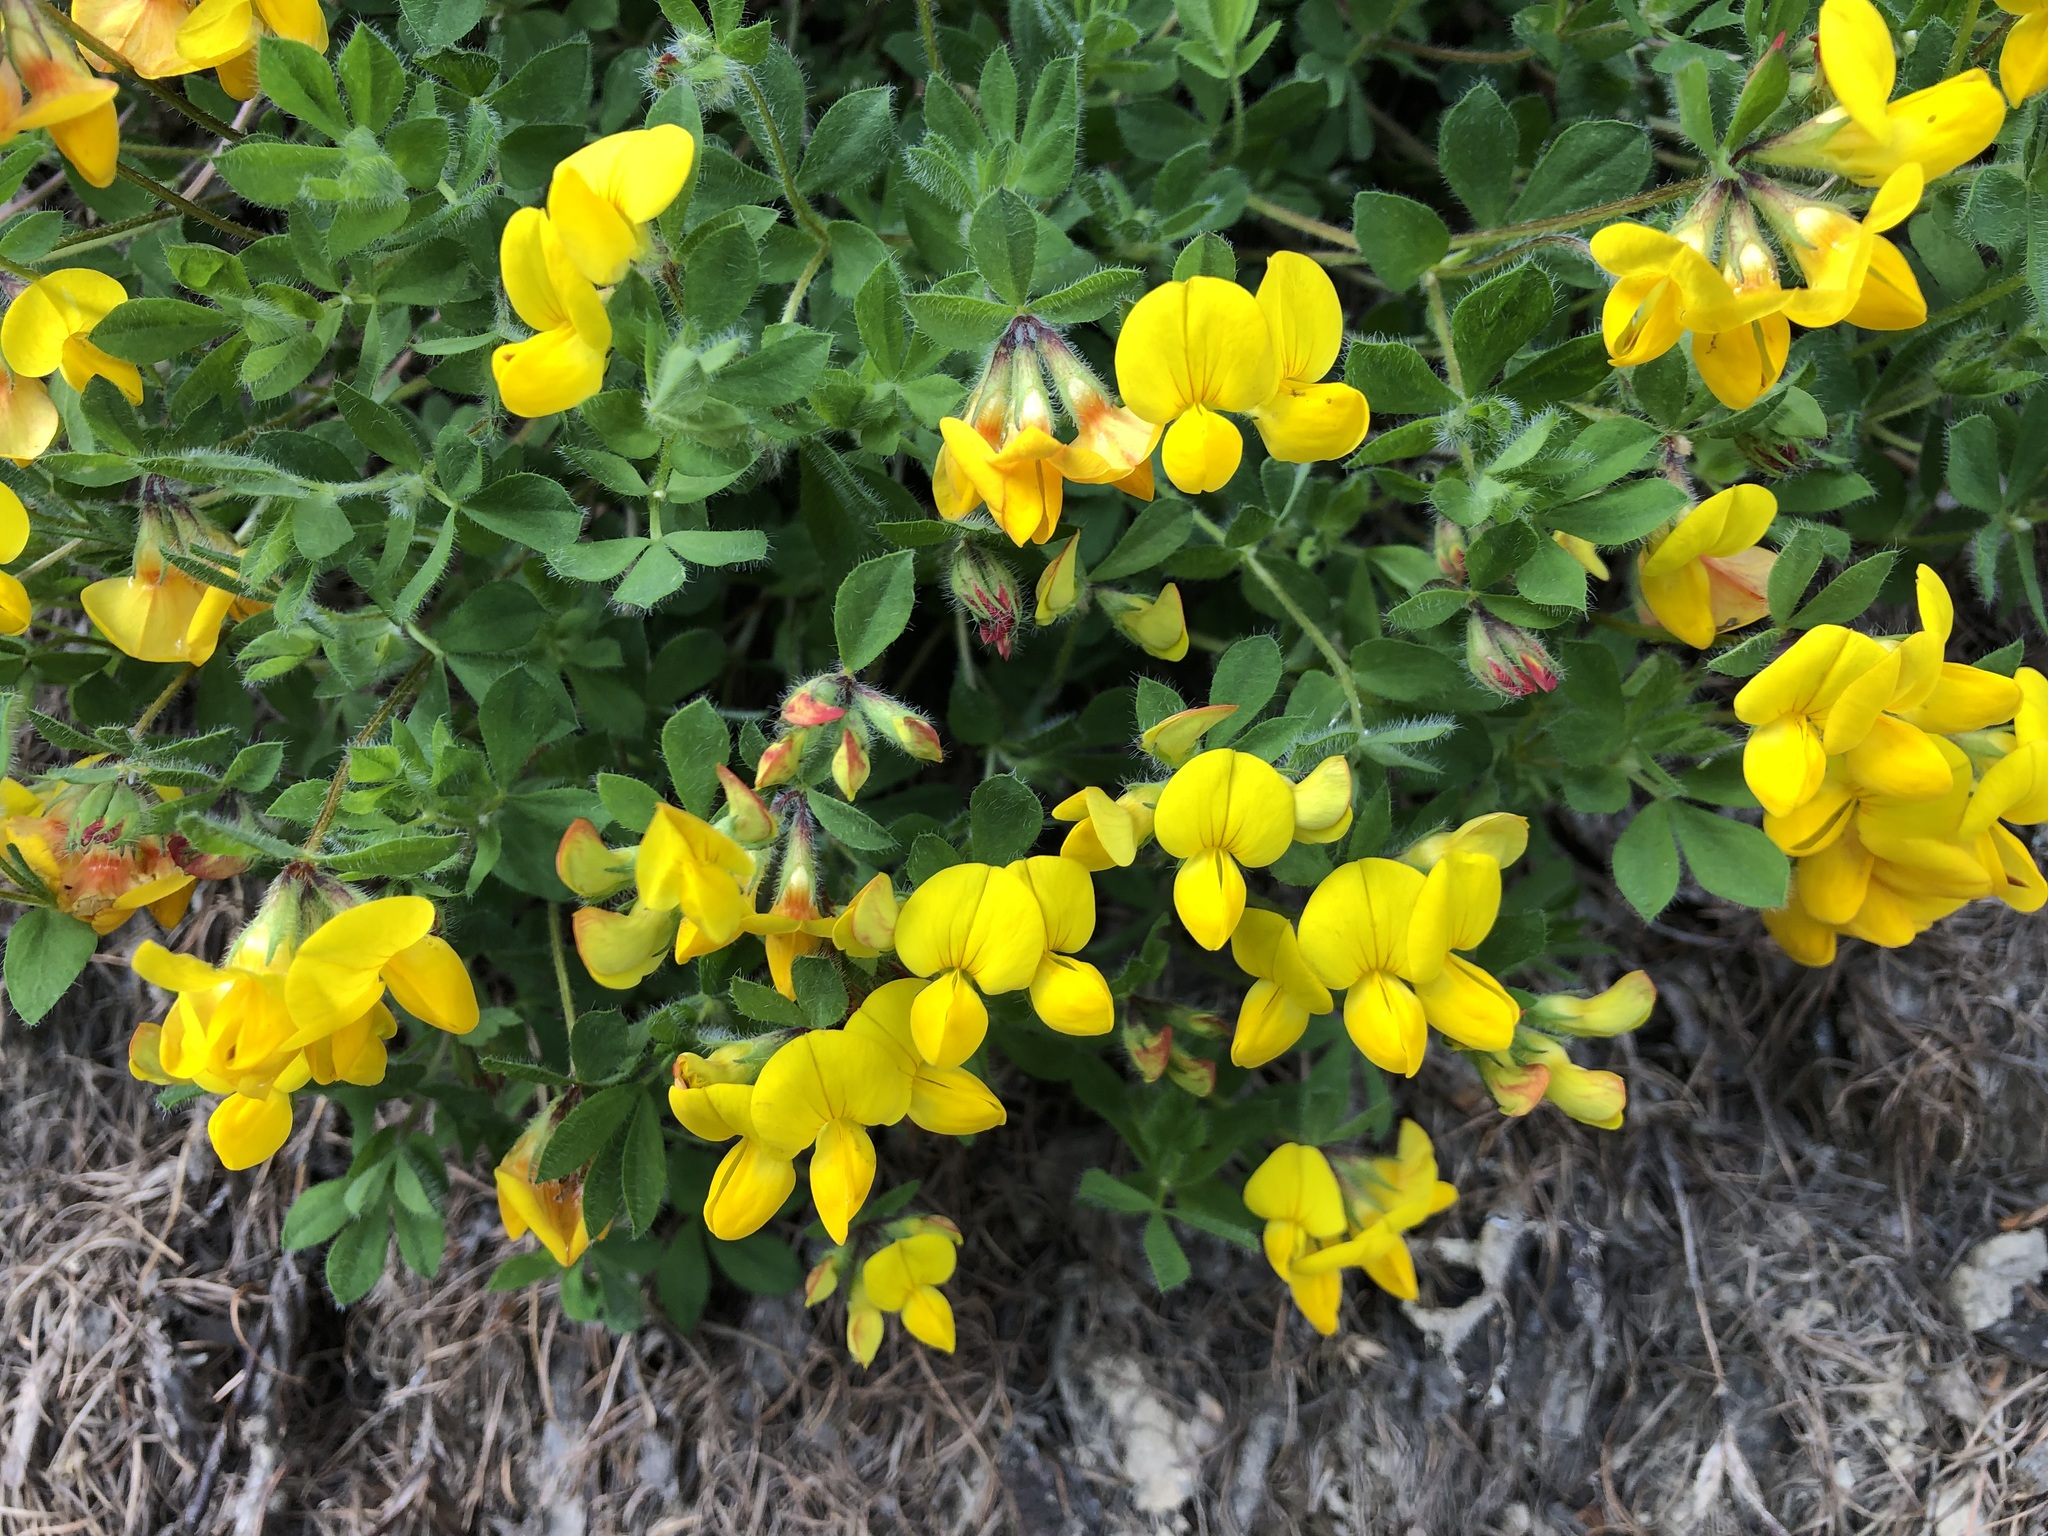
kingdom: Plantae
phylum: Tracheophyta
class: Magnoliopsida
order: Fabales
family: Fabaceae
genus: Lotus
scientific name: Lotus corniculatus
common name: Common bird's-foot-trefoil
